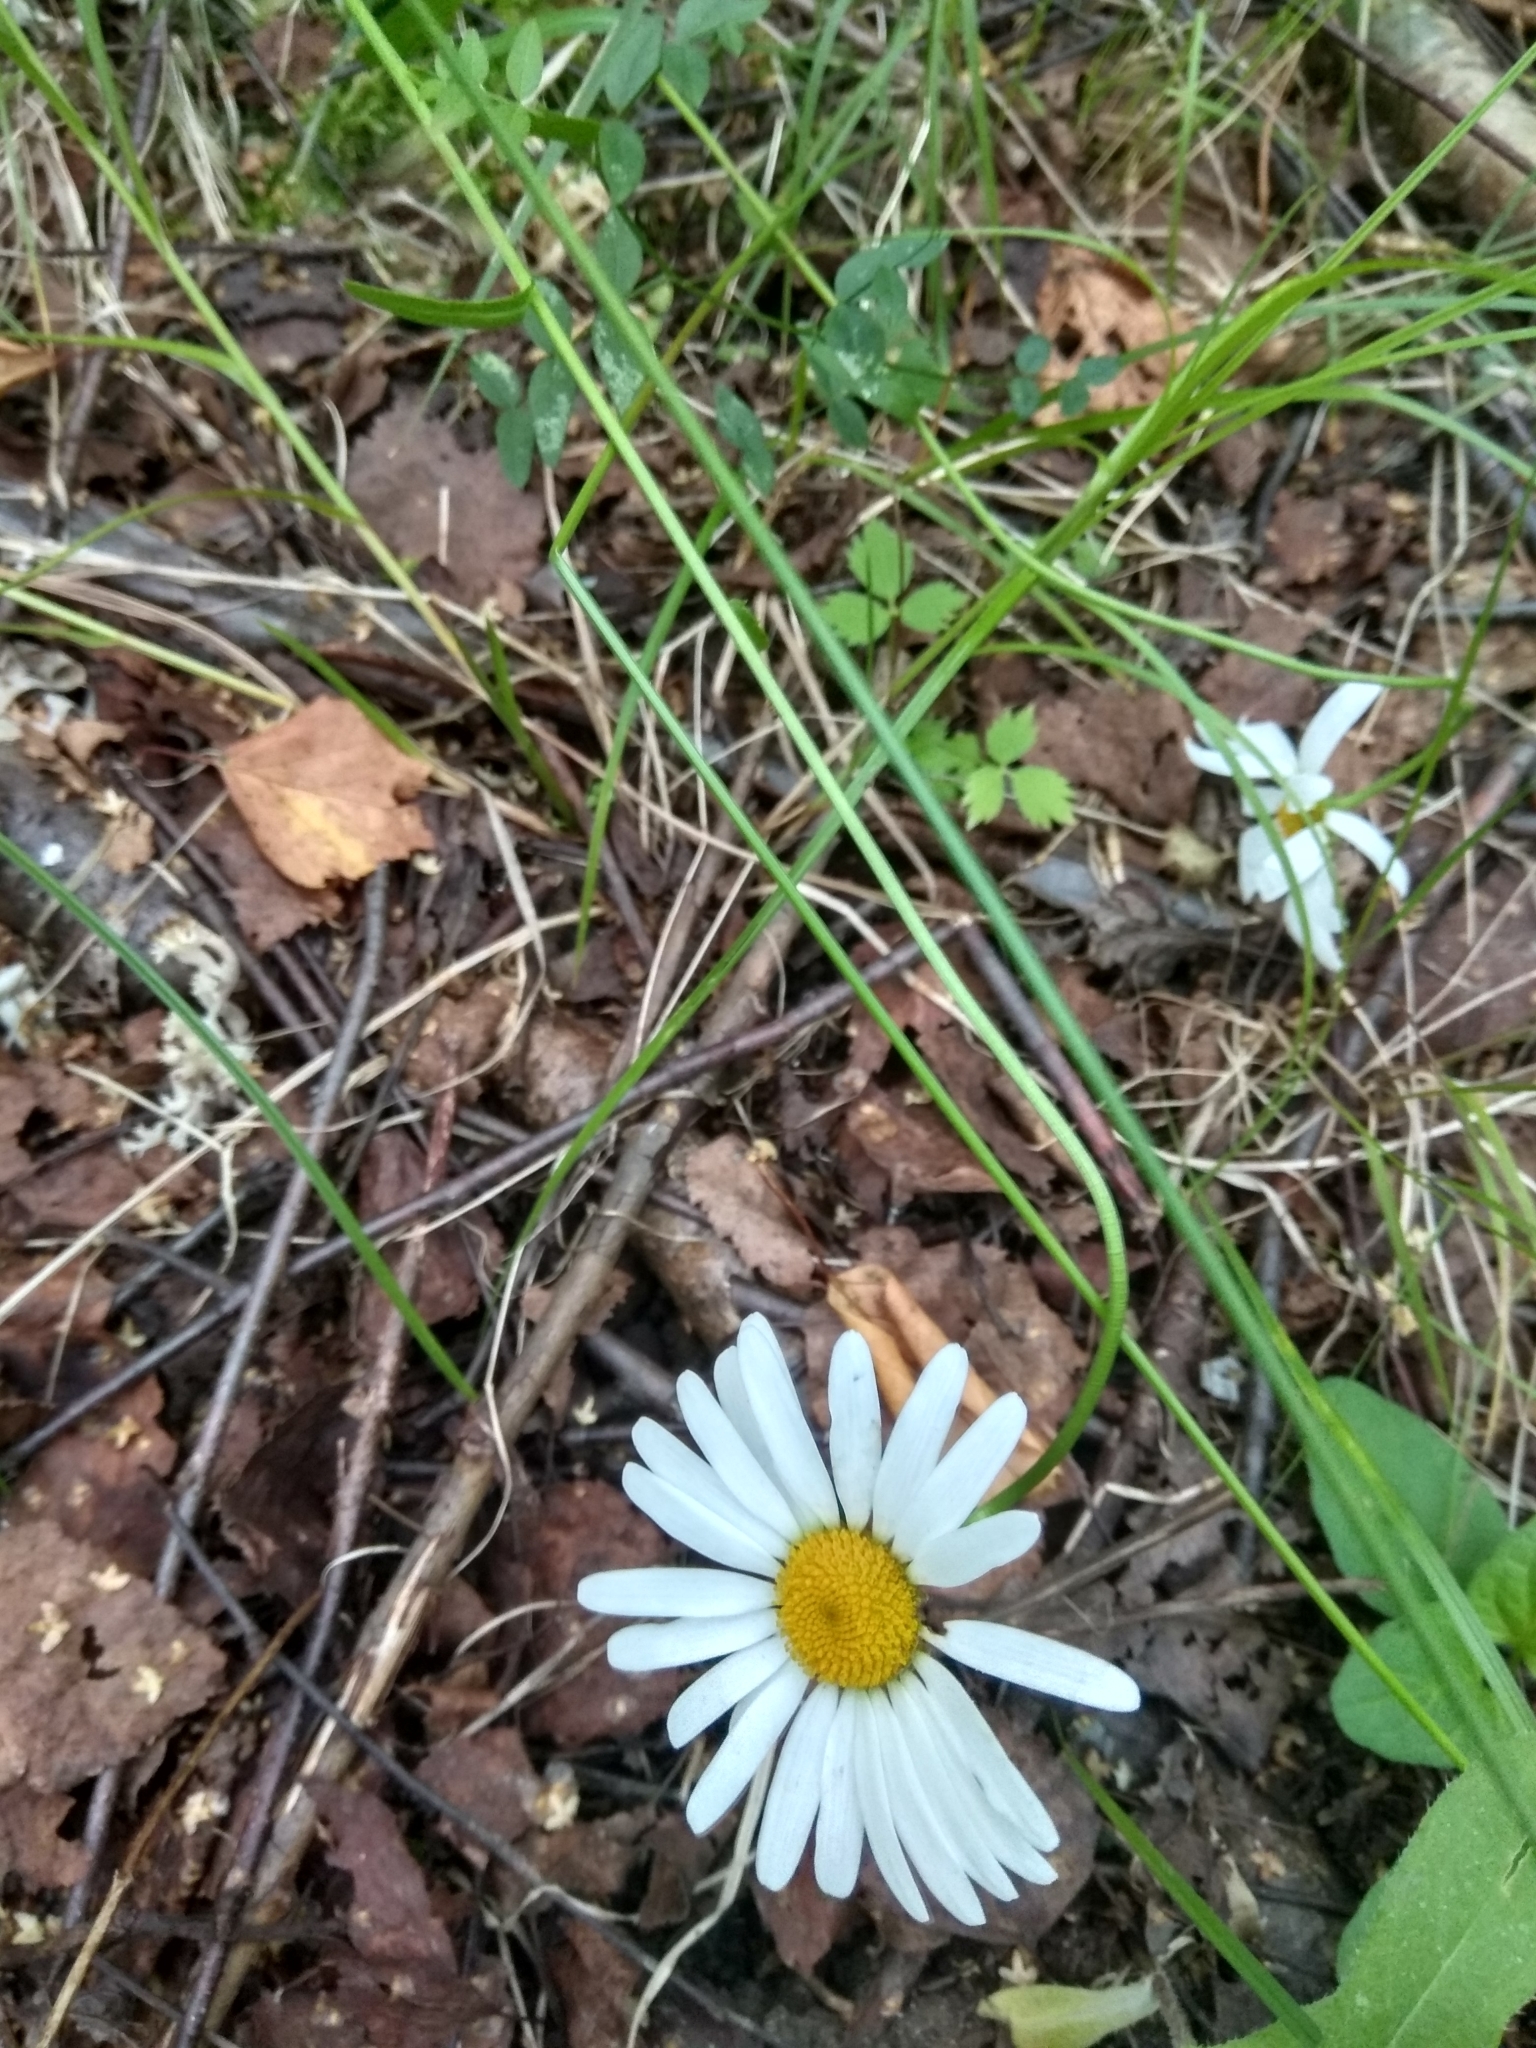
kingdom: Plantae
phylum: Tracheophyta
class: Magnoliopsida
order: Asterales
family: Asteraceae
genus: Leucanthemum
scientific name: Leucanthemum vulgare
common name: Oxeye daisy
